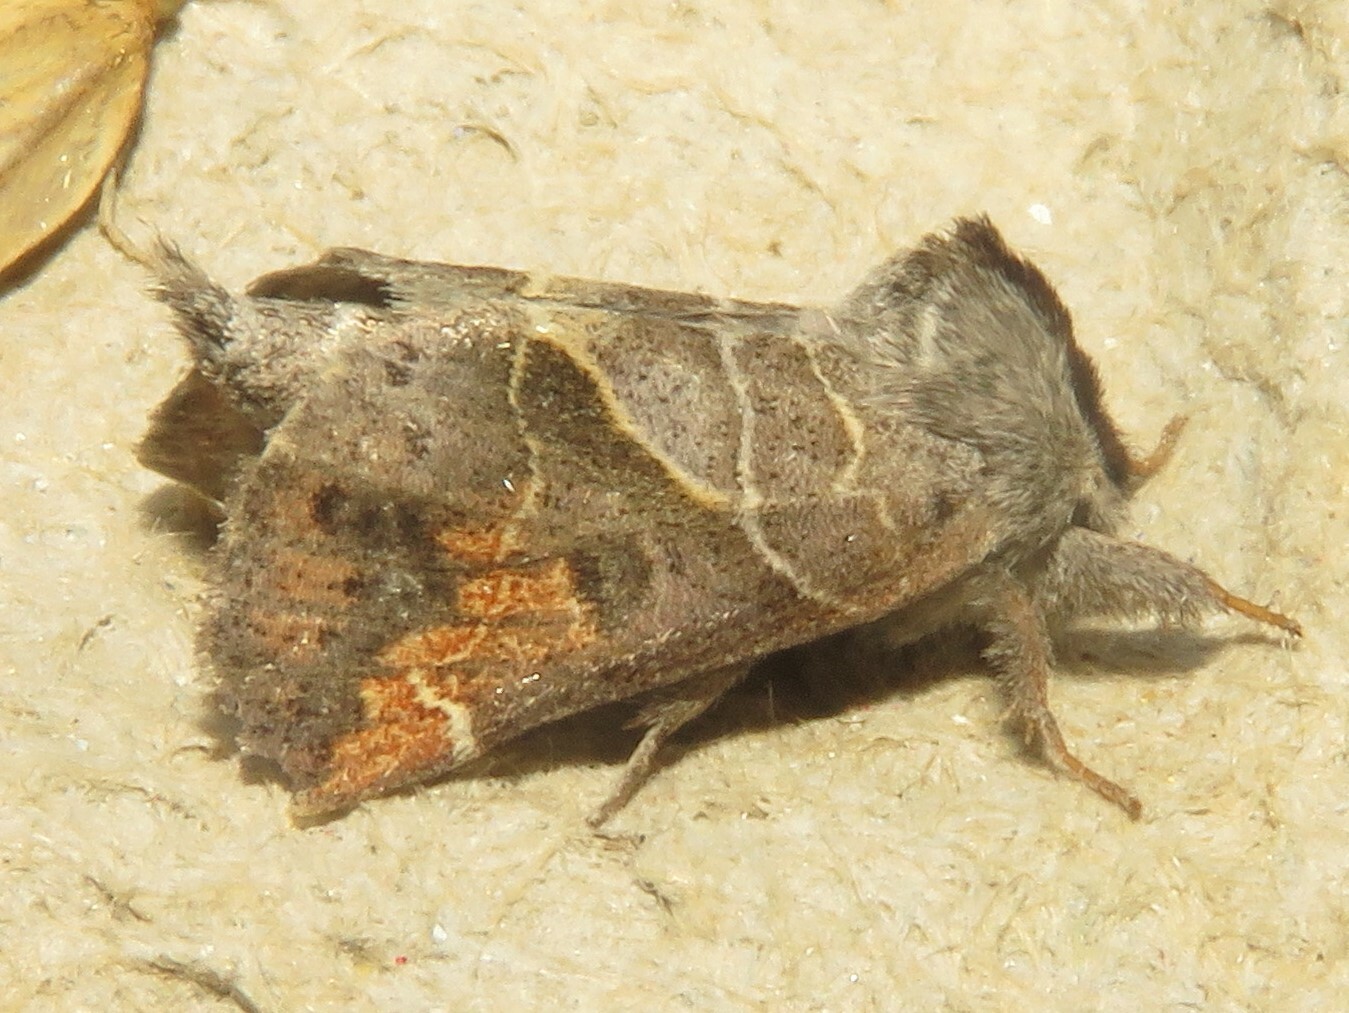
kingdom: Animalia
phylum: Arthropoda
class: Insecta
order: Lepidoptera
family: Notodontidae
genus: Clostera
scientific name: Clostera apicalis
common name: Apical prominent
